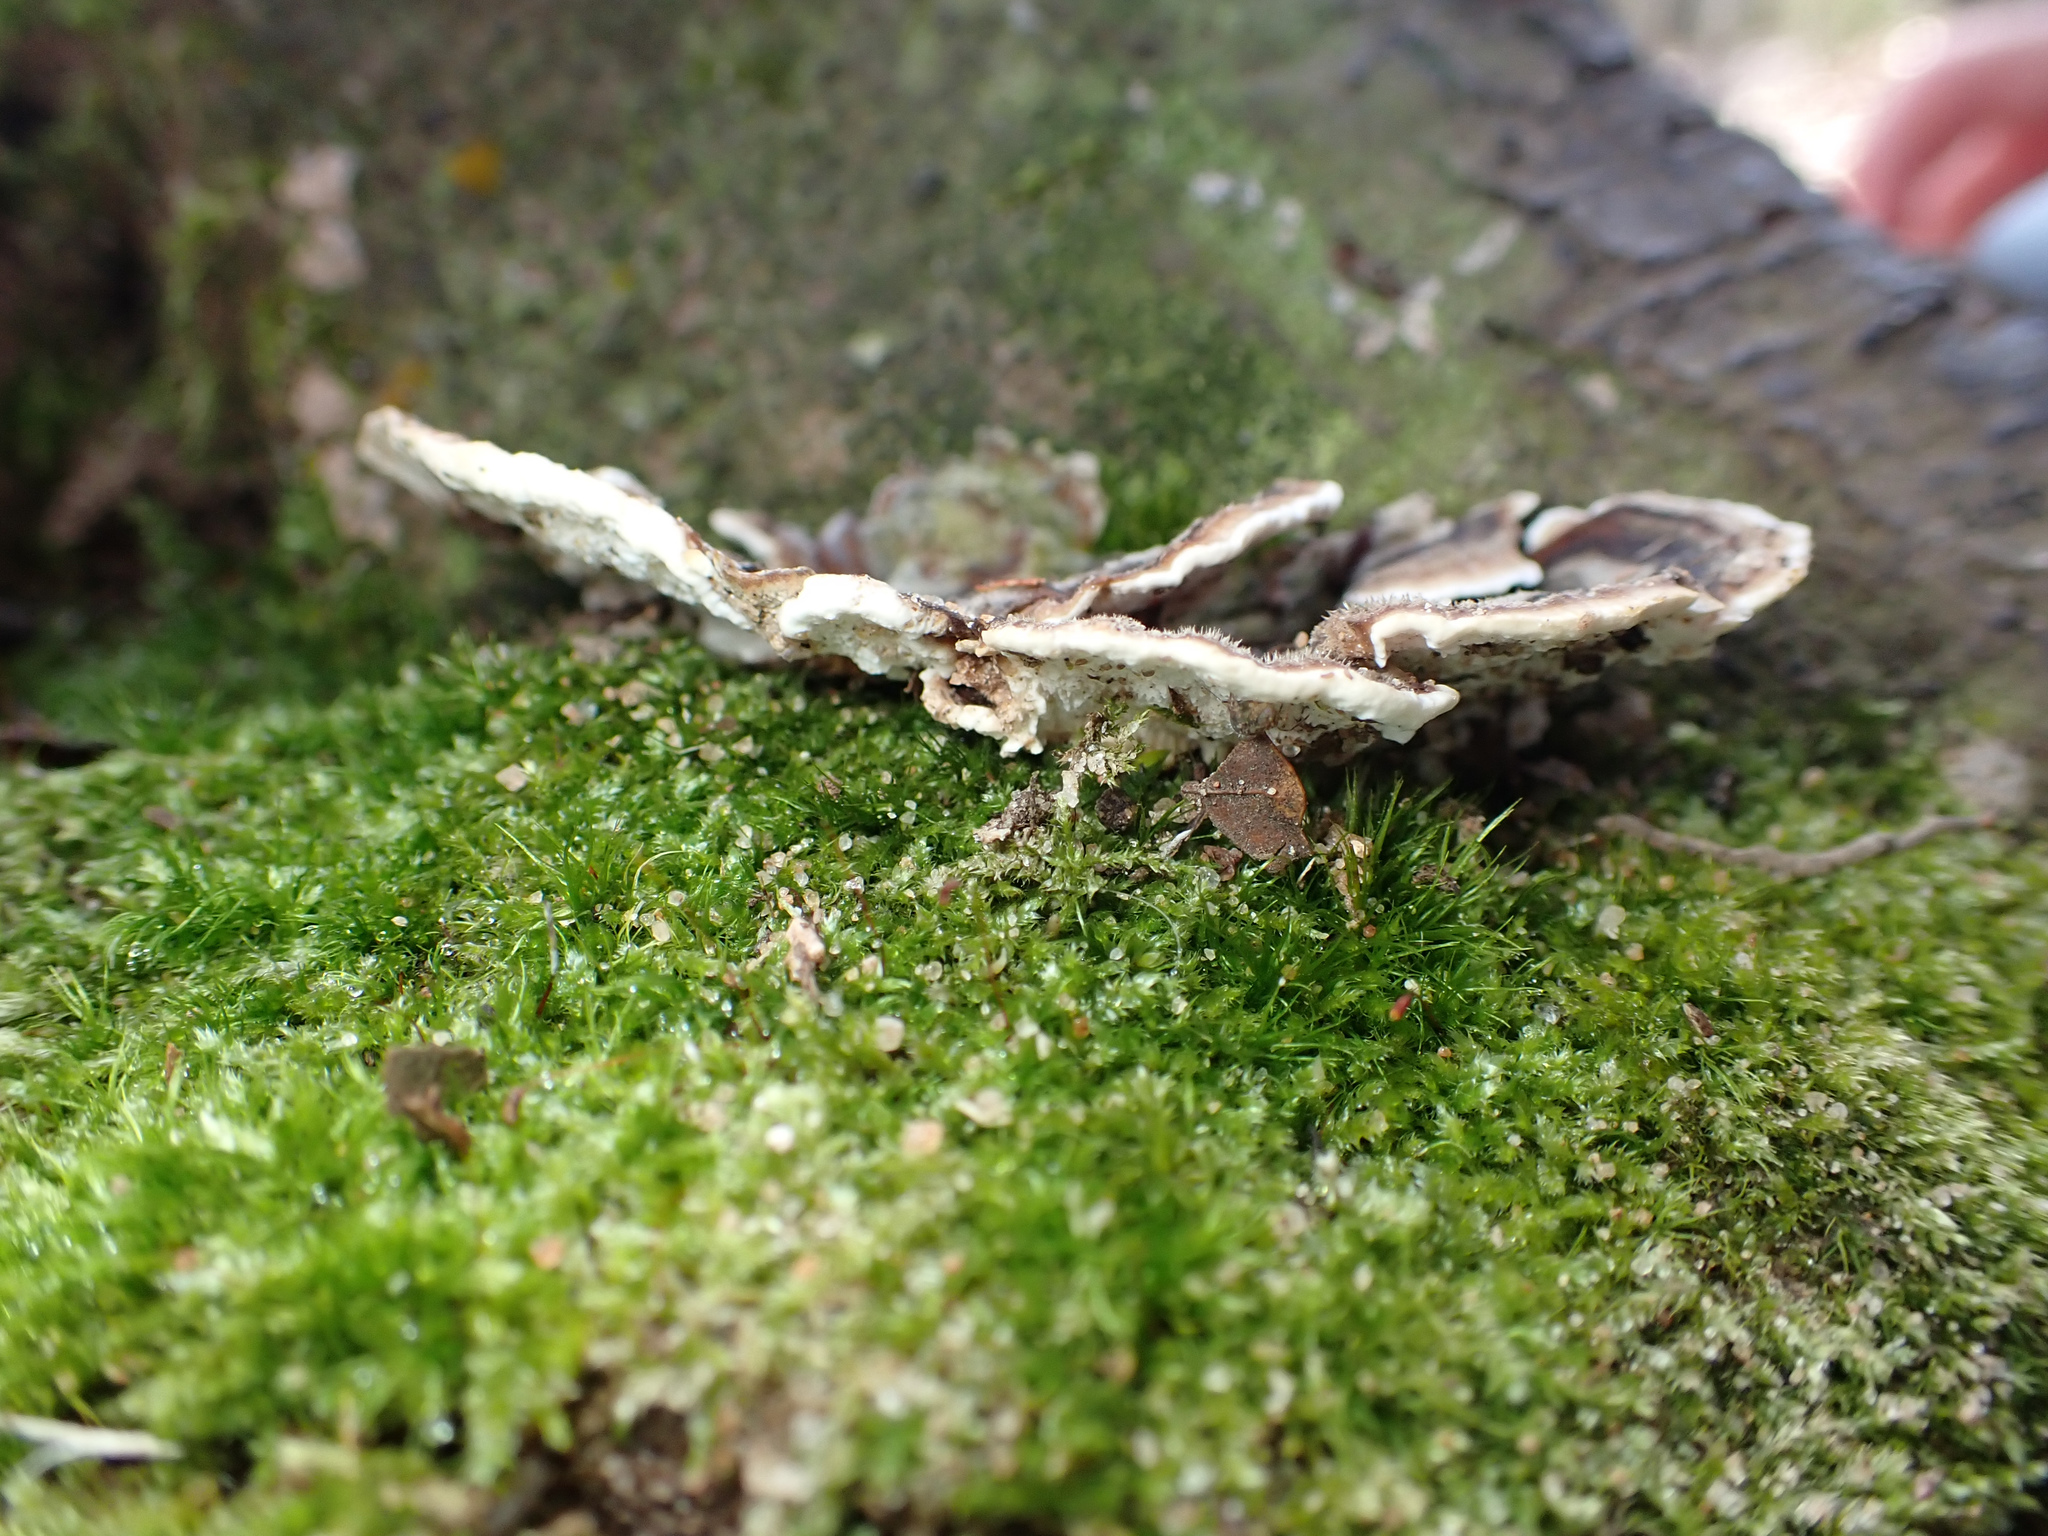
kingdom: Fungi
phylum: Basidiomycota
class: Agaricomycetes
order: Polyporales
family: Polyporaceae
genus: Trametes
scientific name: Trametes versicolor
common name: Turkeytail
